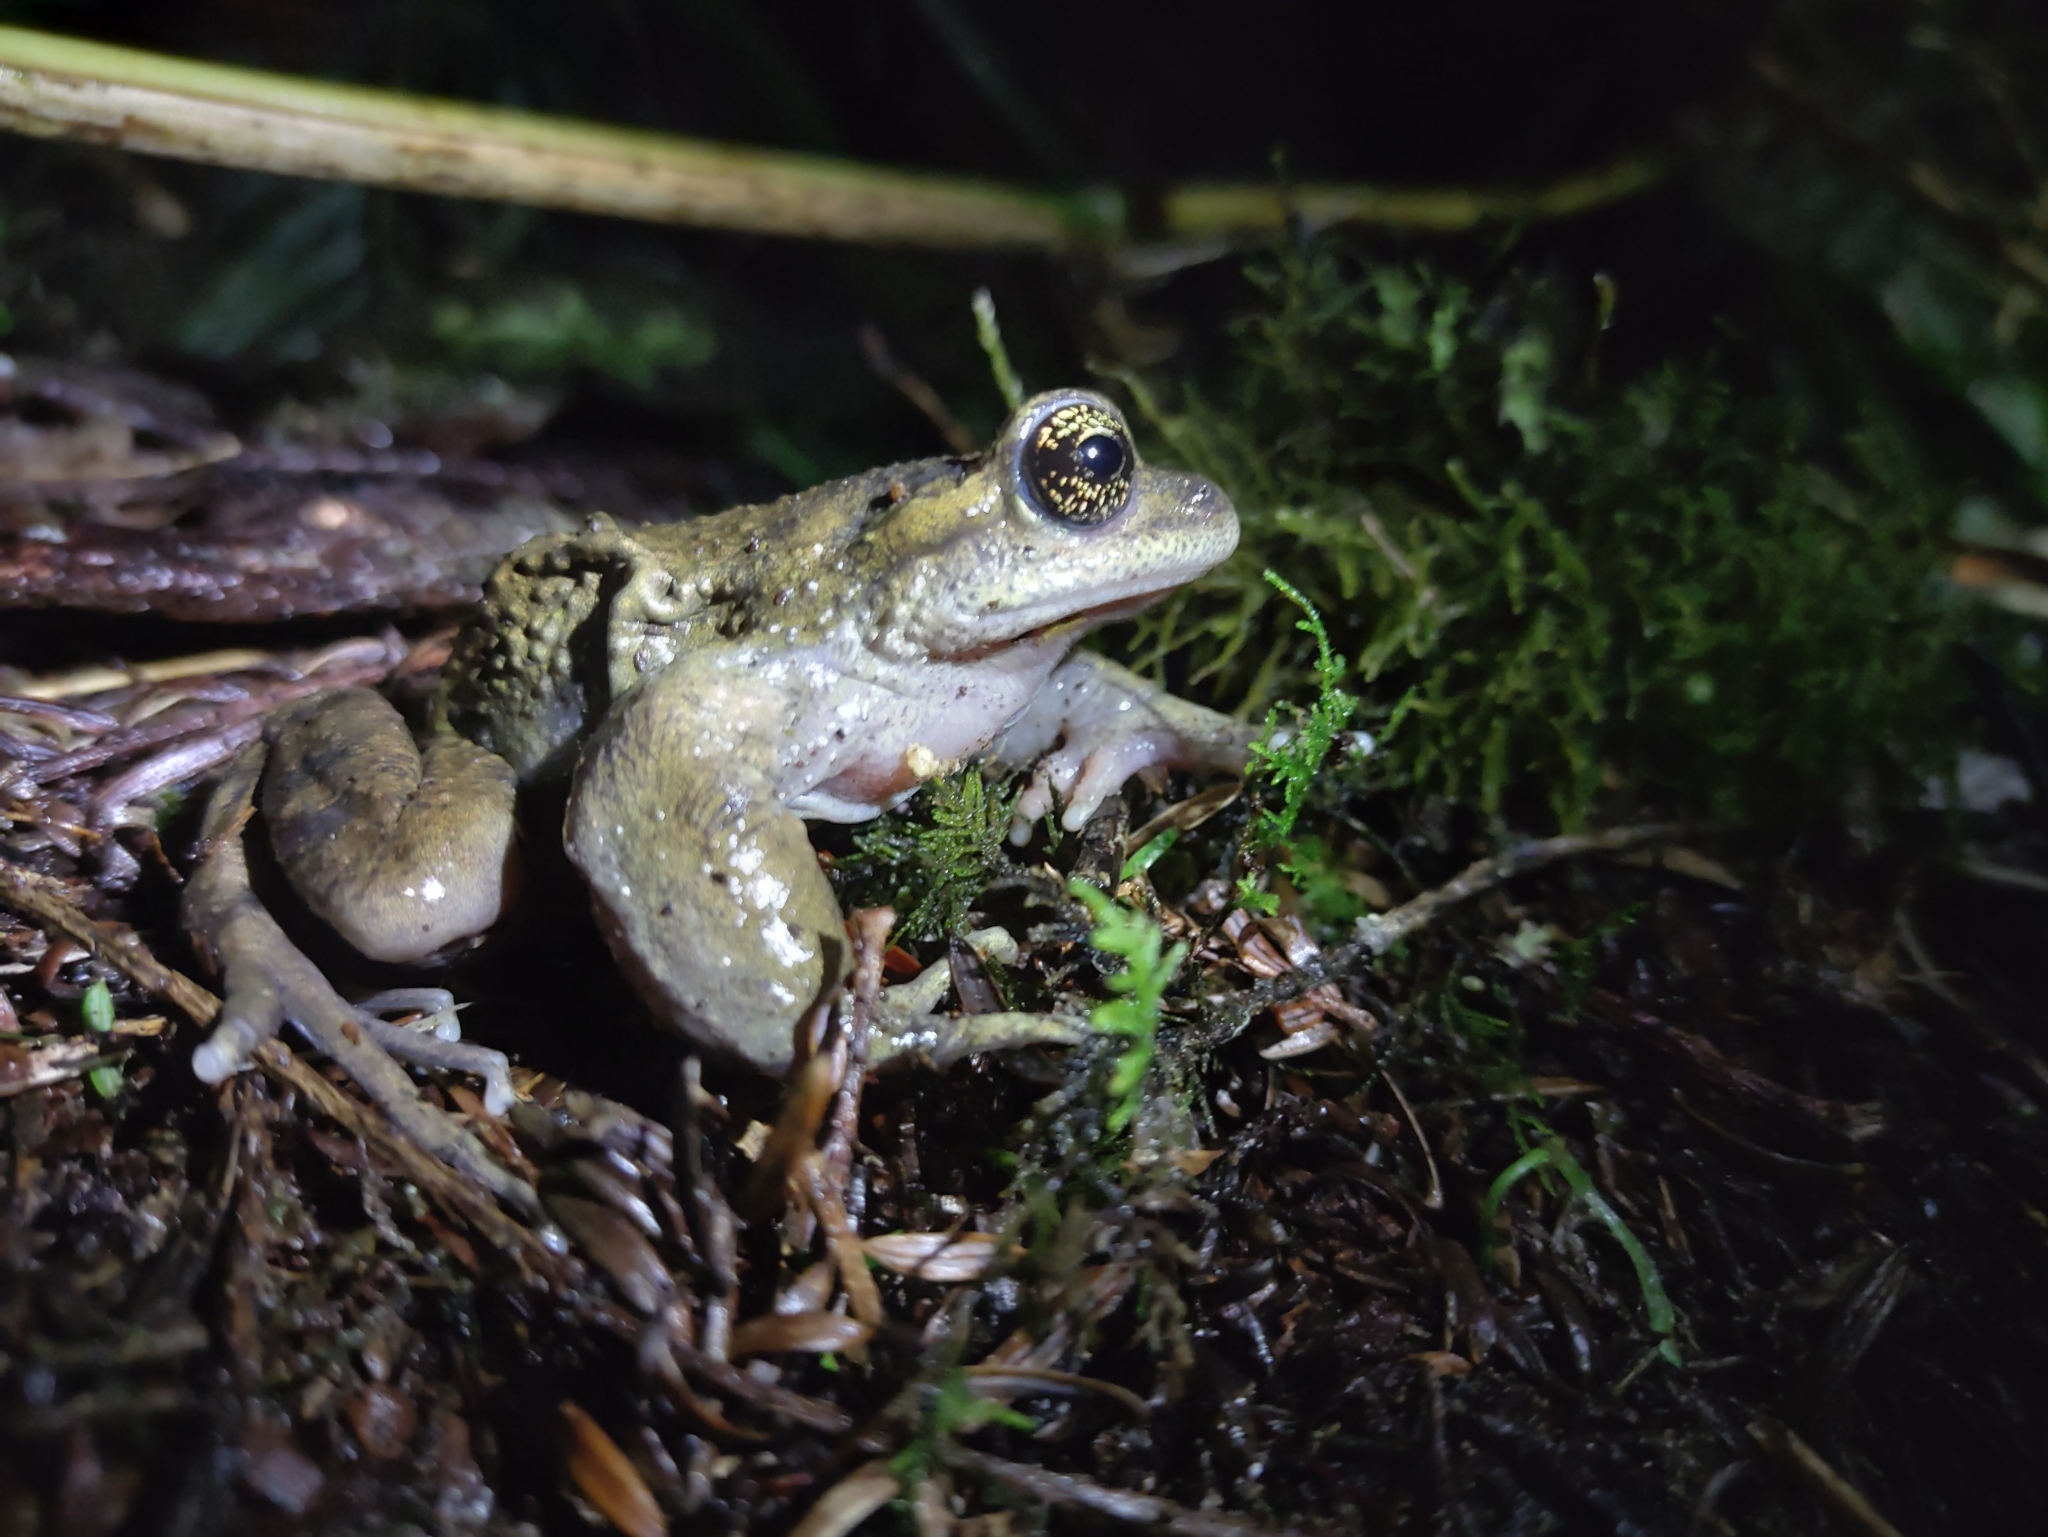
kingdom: Animalia
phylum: Chordata
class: Amphibia
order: Anura
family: Alsodidae
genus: Alsodes
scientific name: Alsodes valdiviensis
